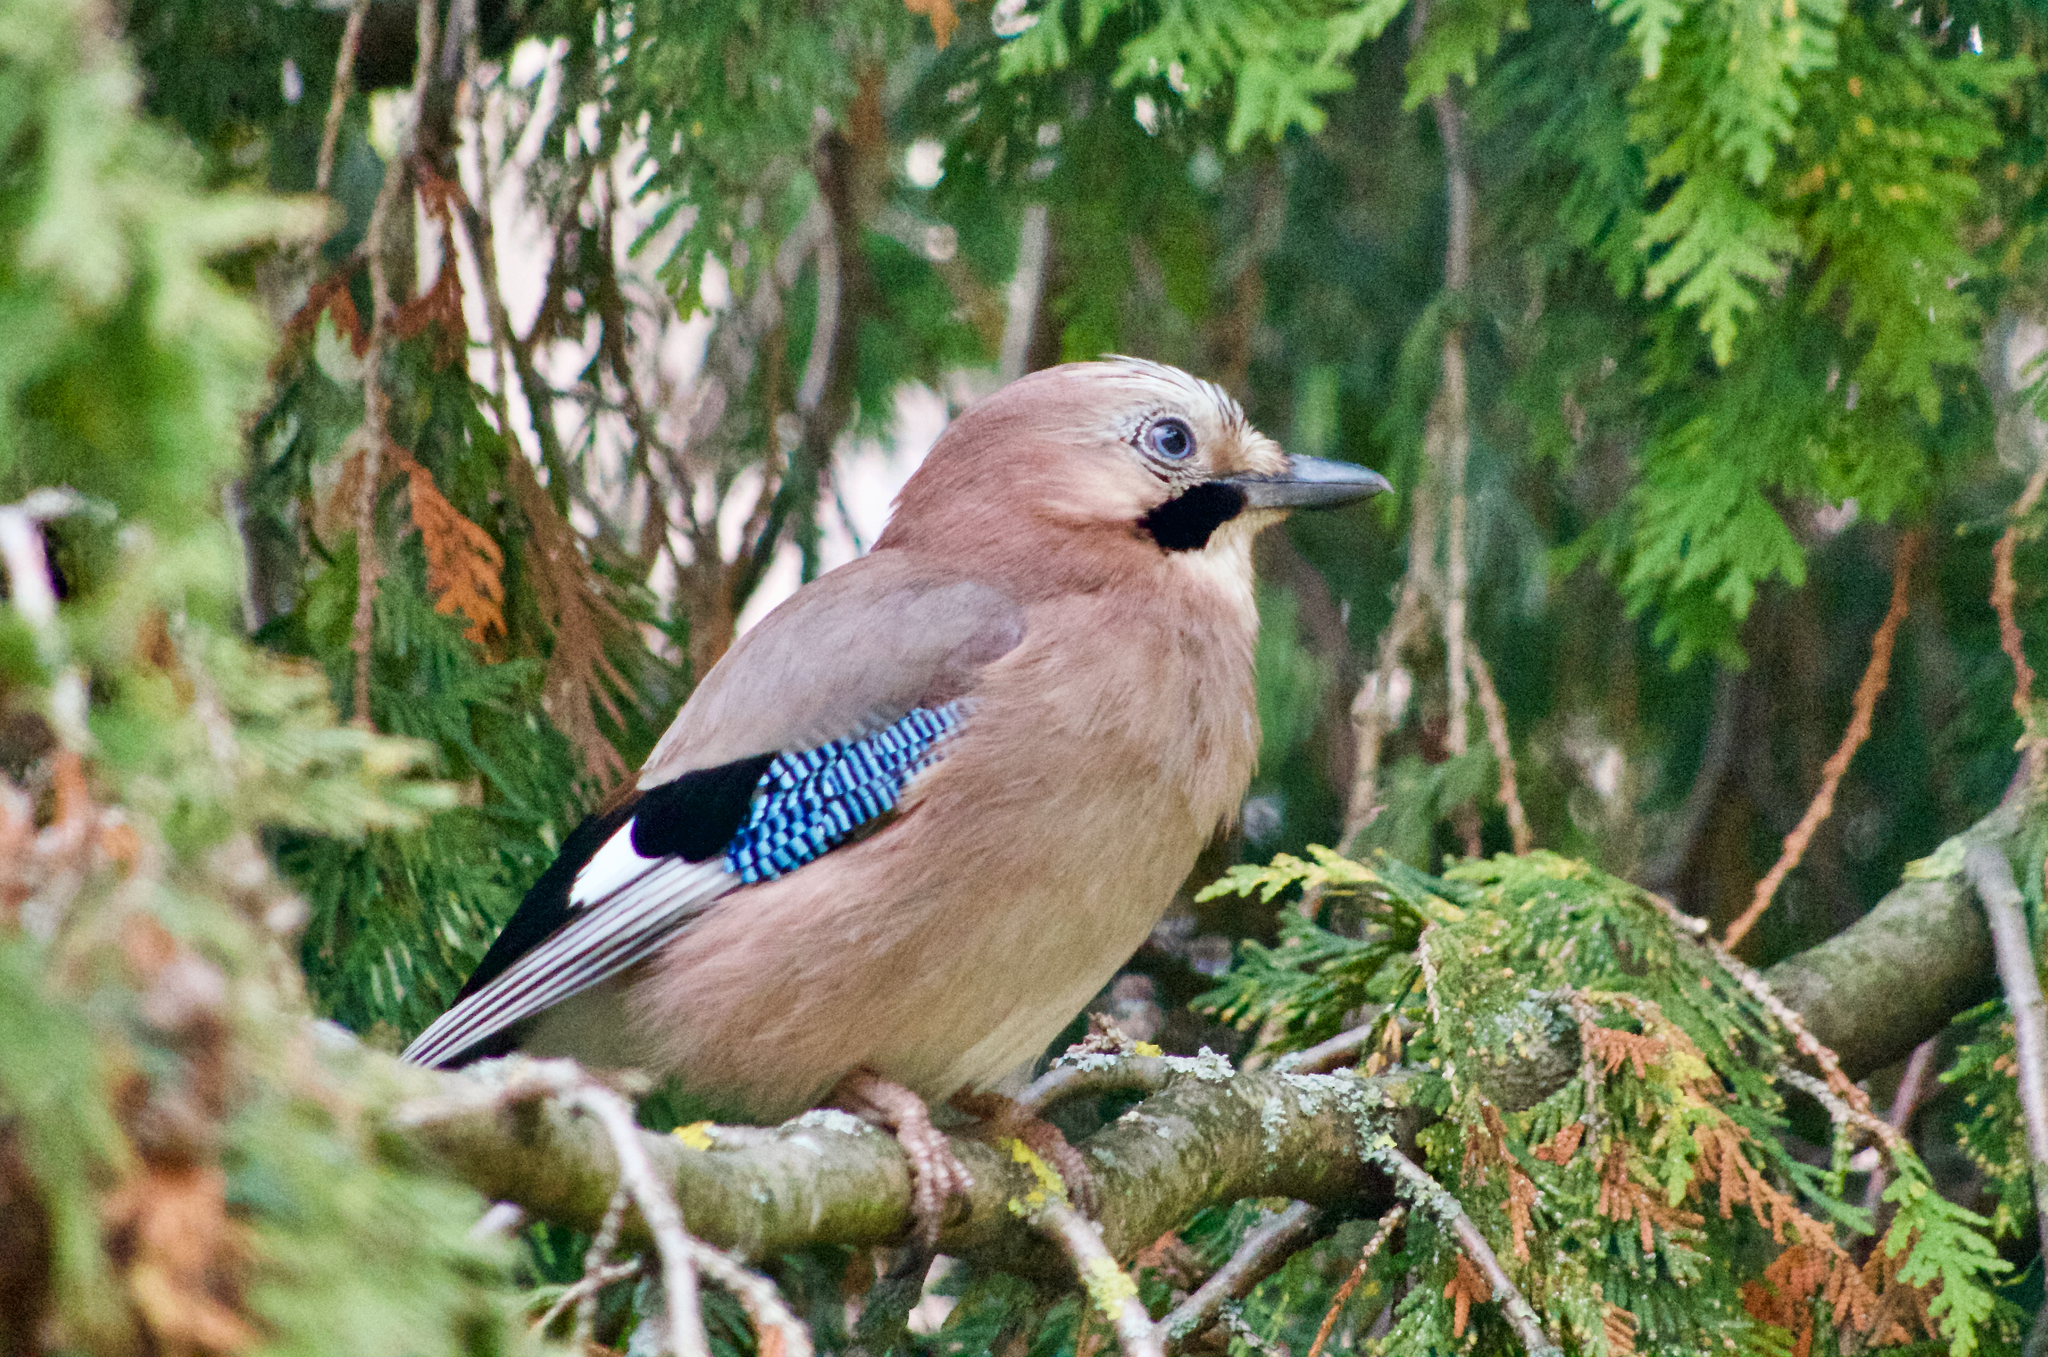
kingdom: Animalia
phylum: Chordata
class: Aves
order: Passeriformes
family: Corvidae
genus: Garrulus
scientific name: Garrulus glandarius
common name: Eurasian jay
